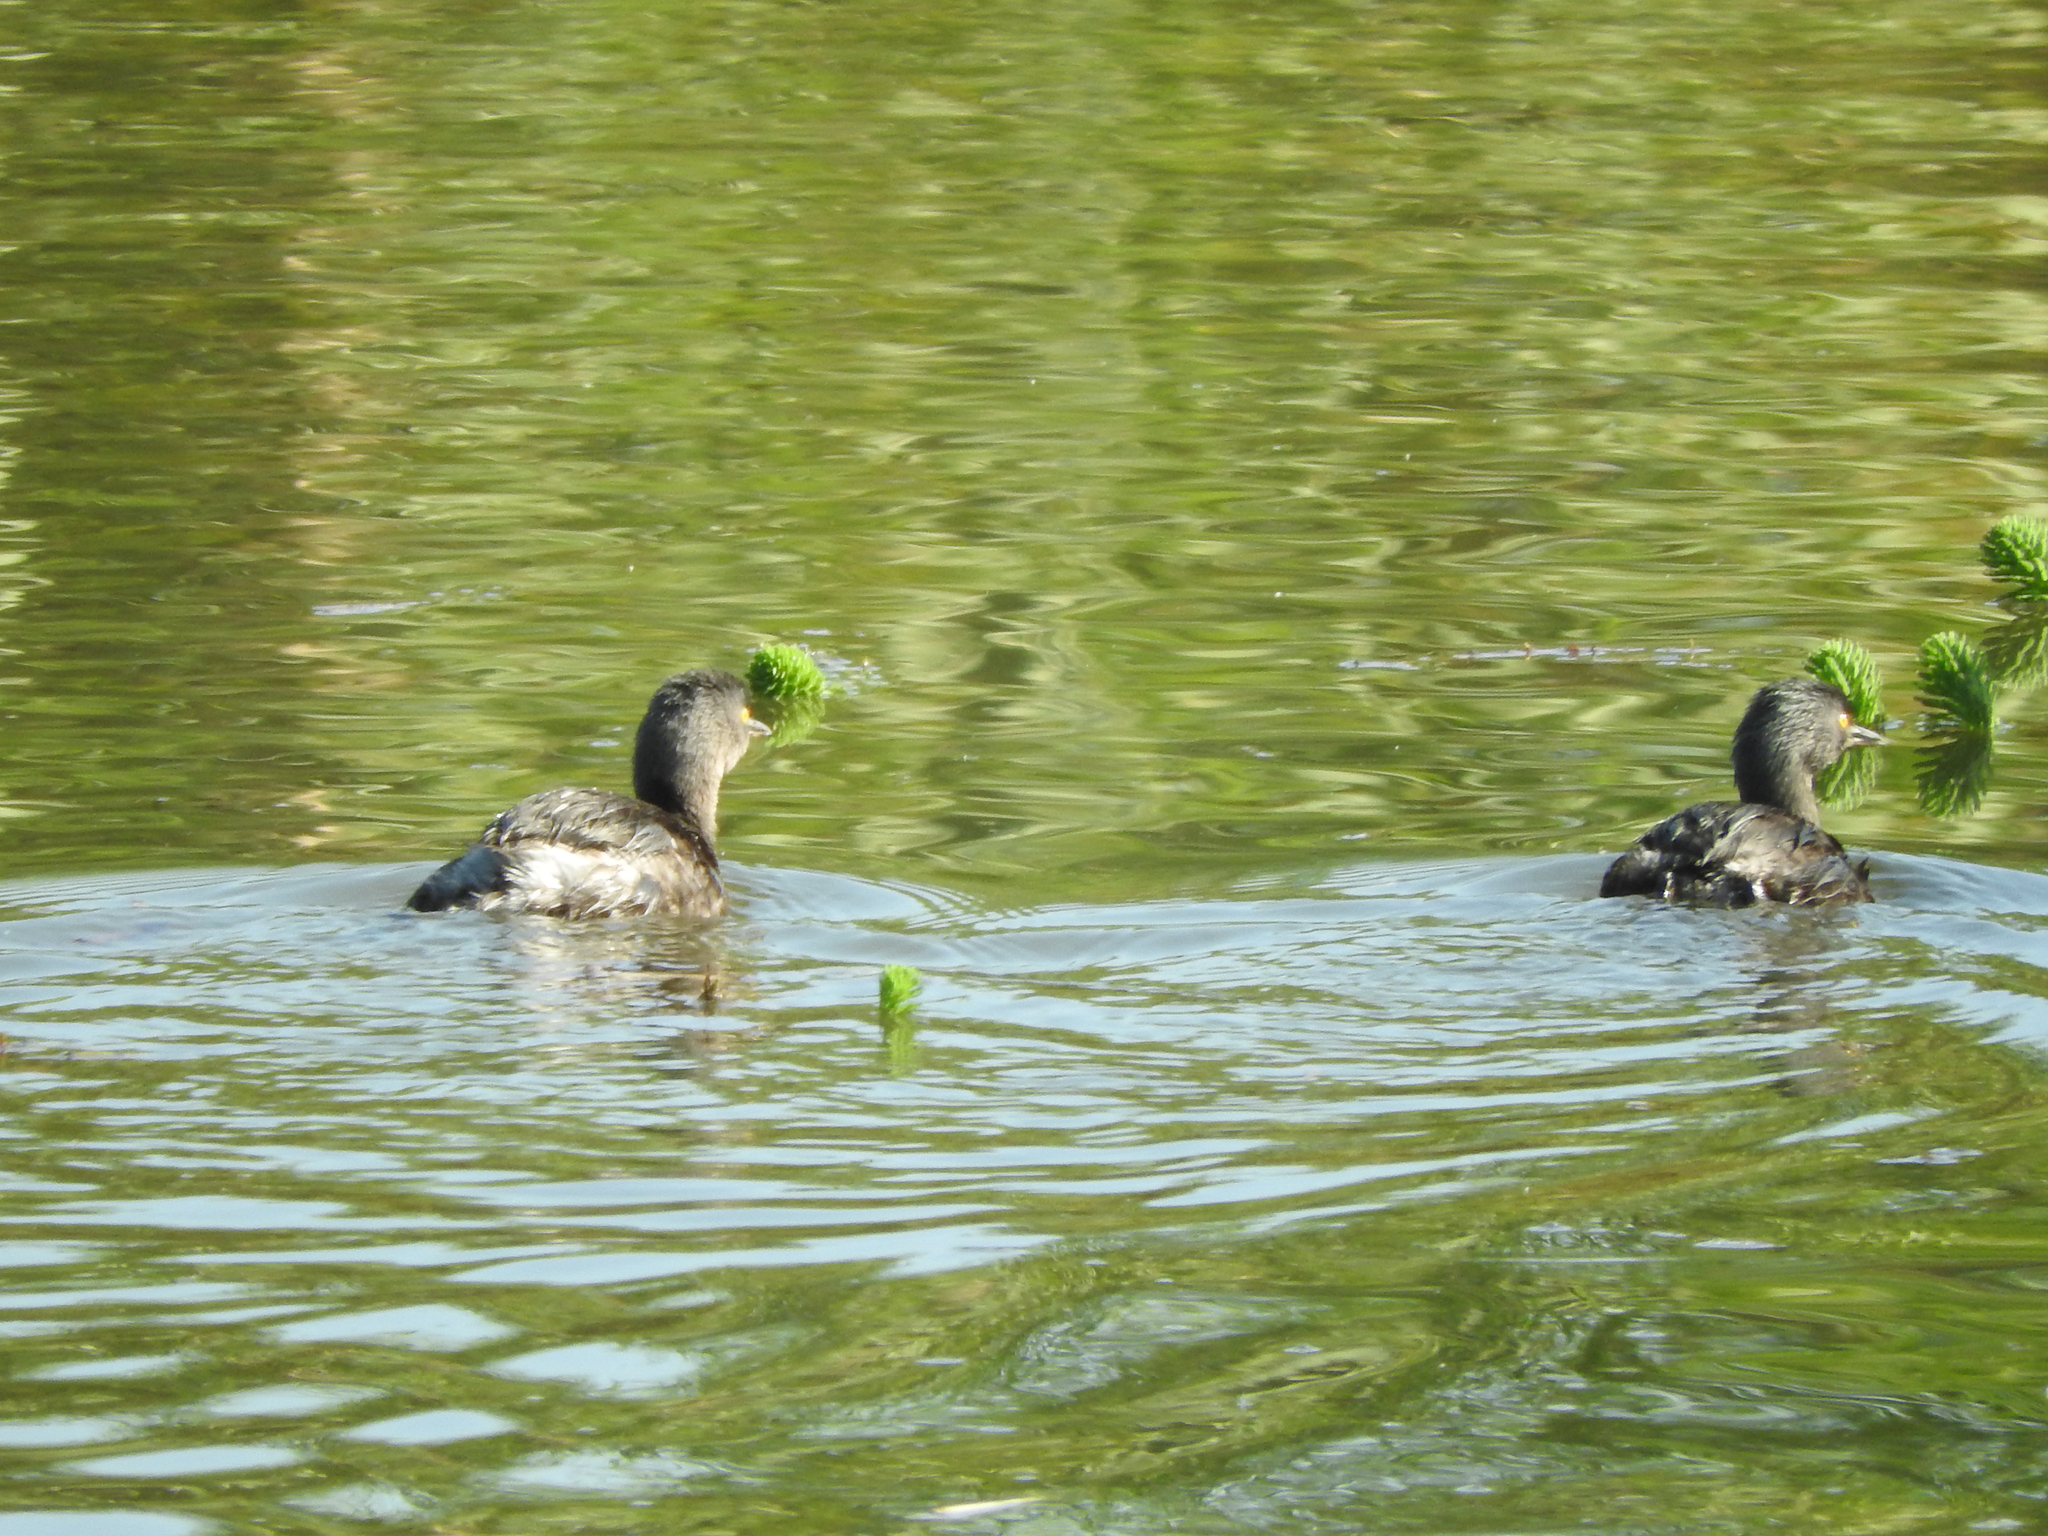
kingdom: Animalia
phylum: Chordata
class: Aves
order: Podicipediformes
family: Podicipedidae
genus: Tachybaptus
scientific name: Tachybaptus dominicus
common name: Least grebe
